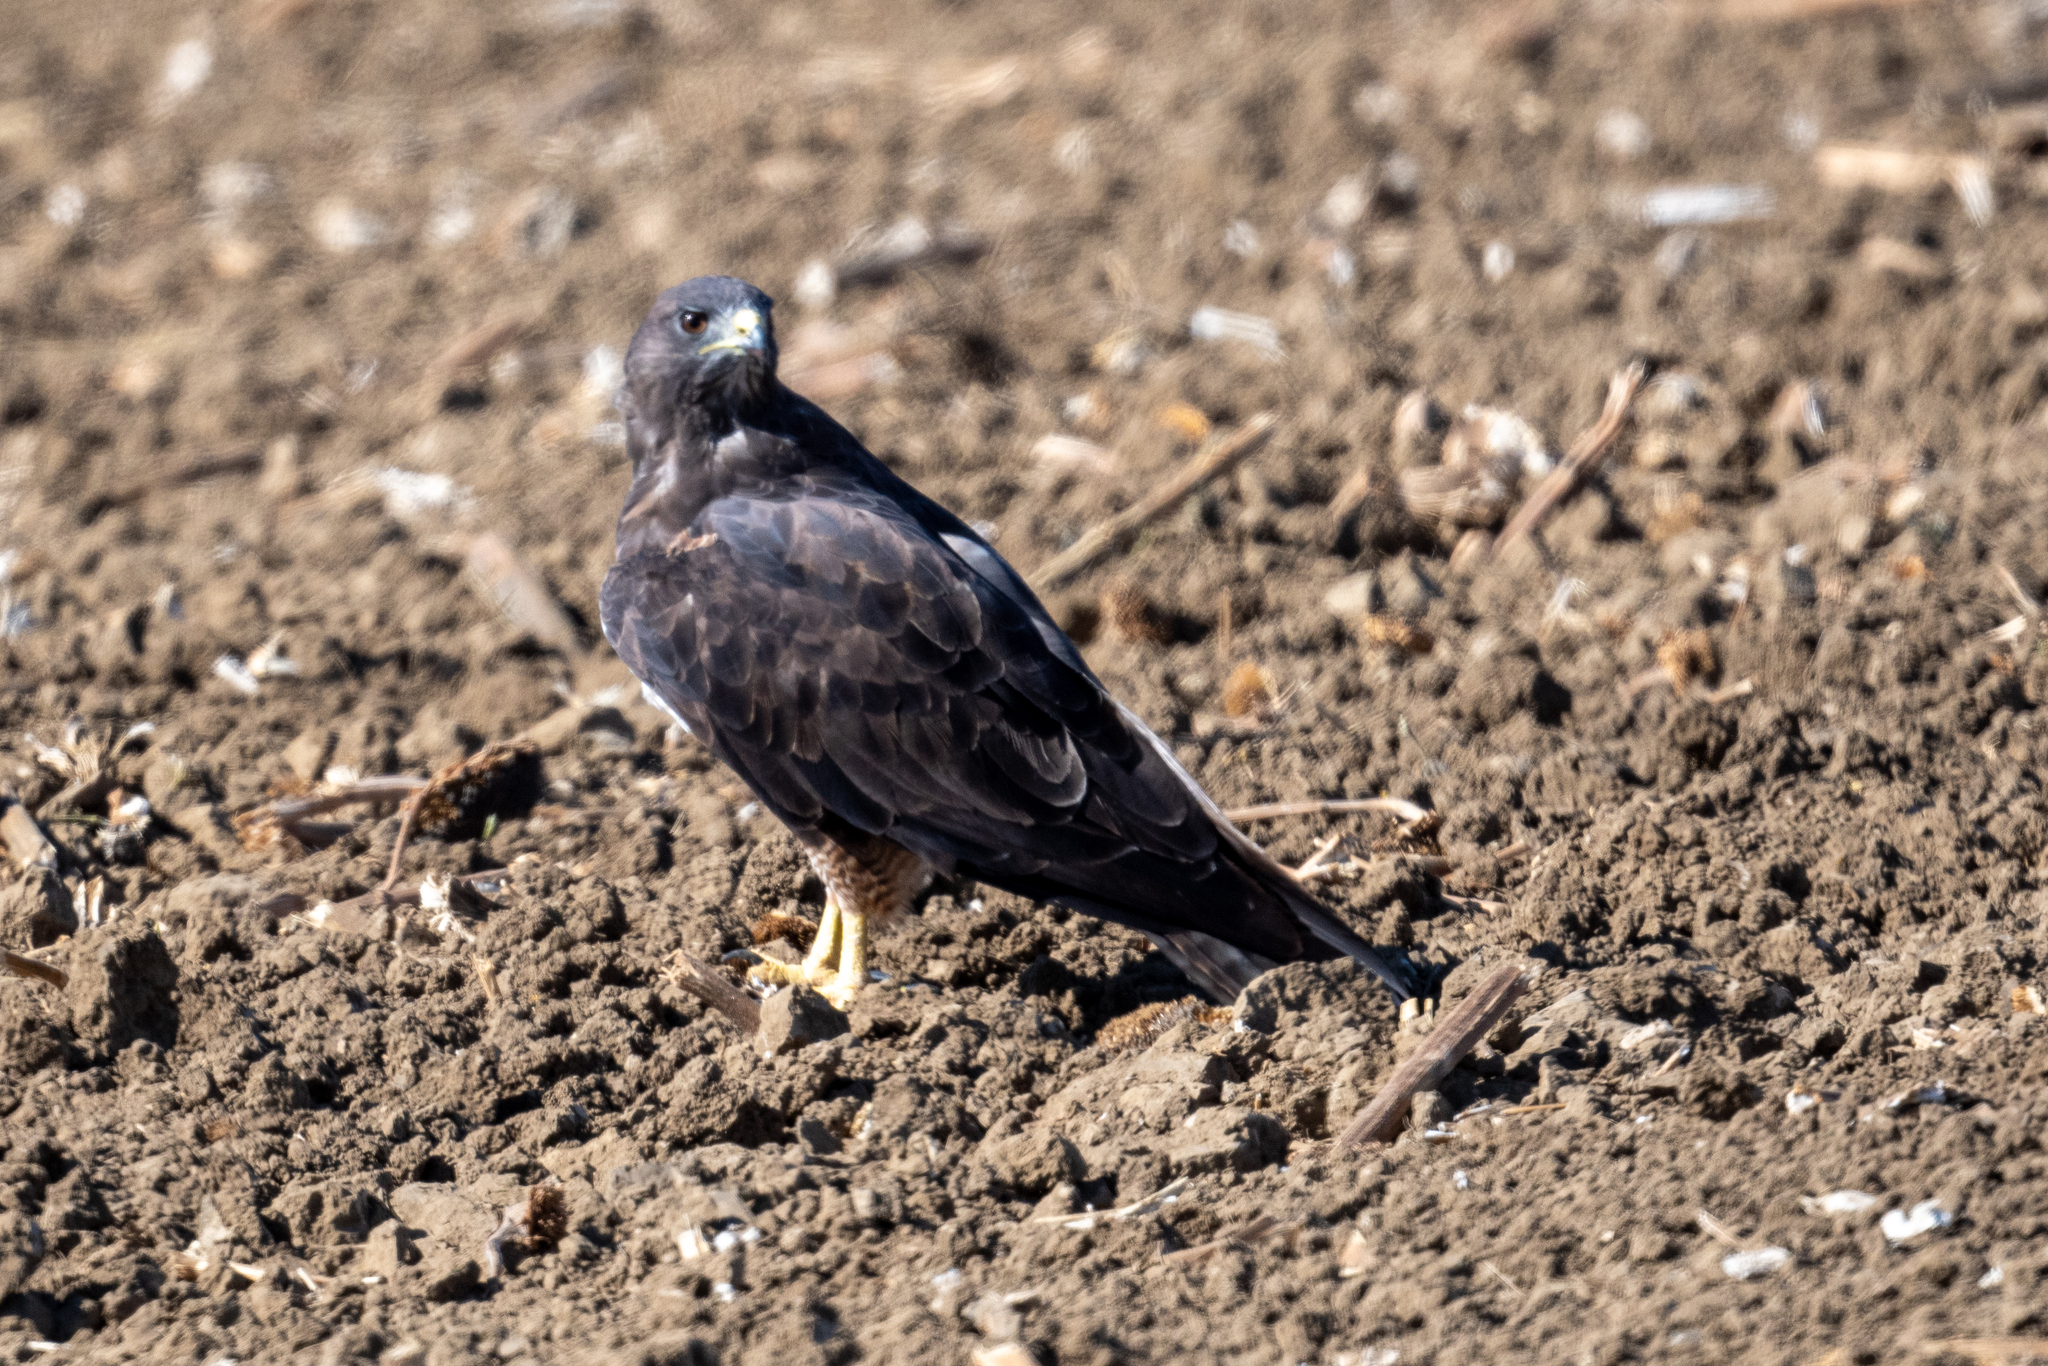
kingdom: Animalia
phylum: Chordata
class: Aves
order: Accipitriformes
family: Accipitridae
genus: Buteo
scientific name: Buteo swainsoni
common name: Swainson's hawk
